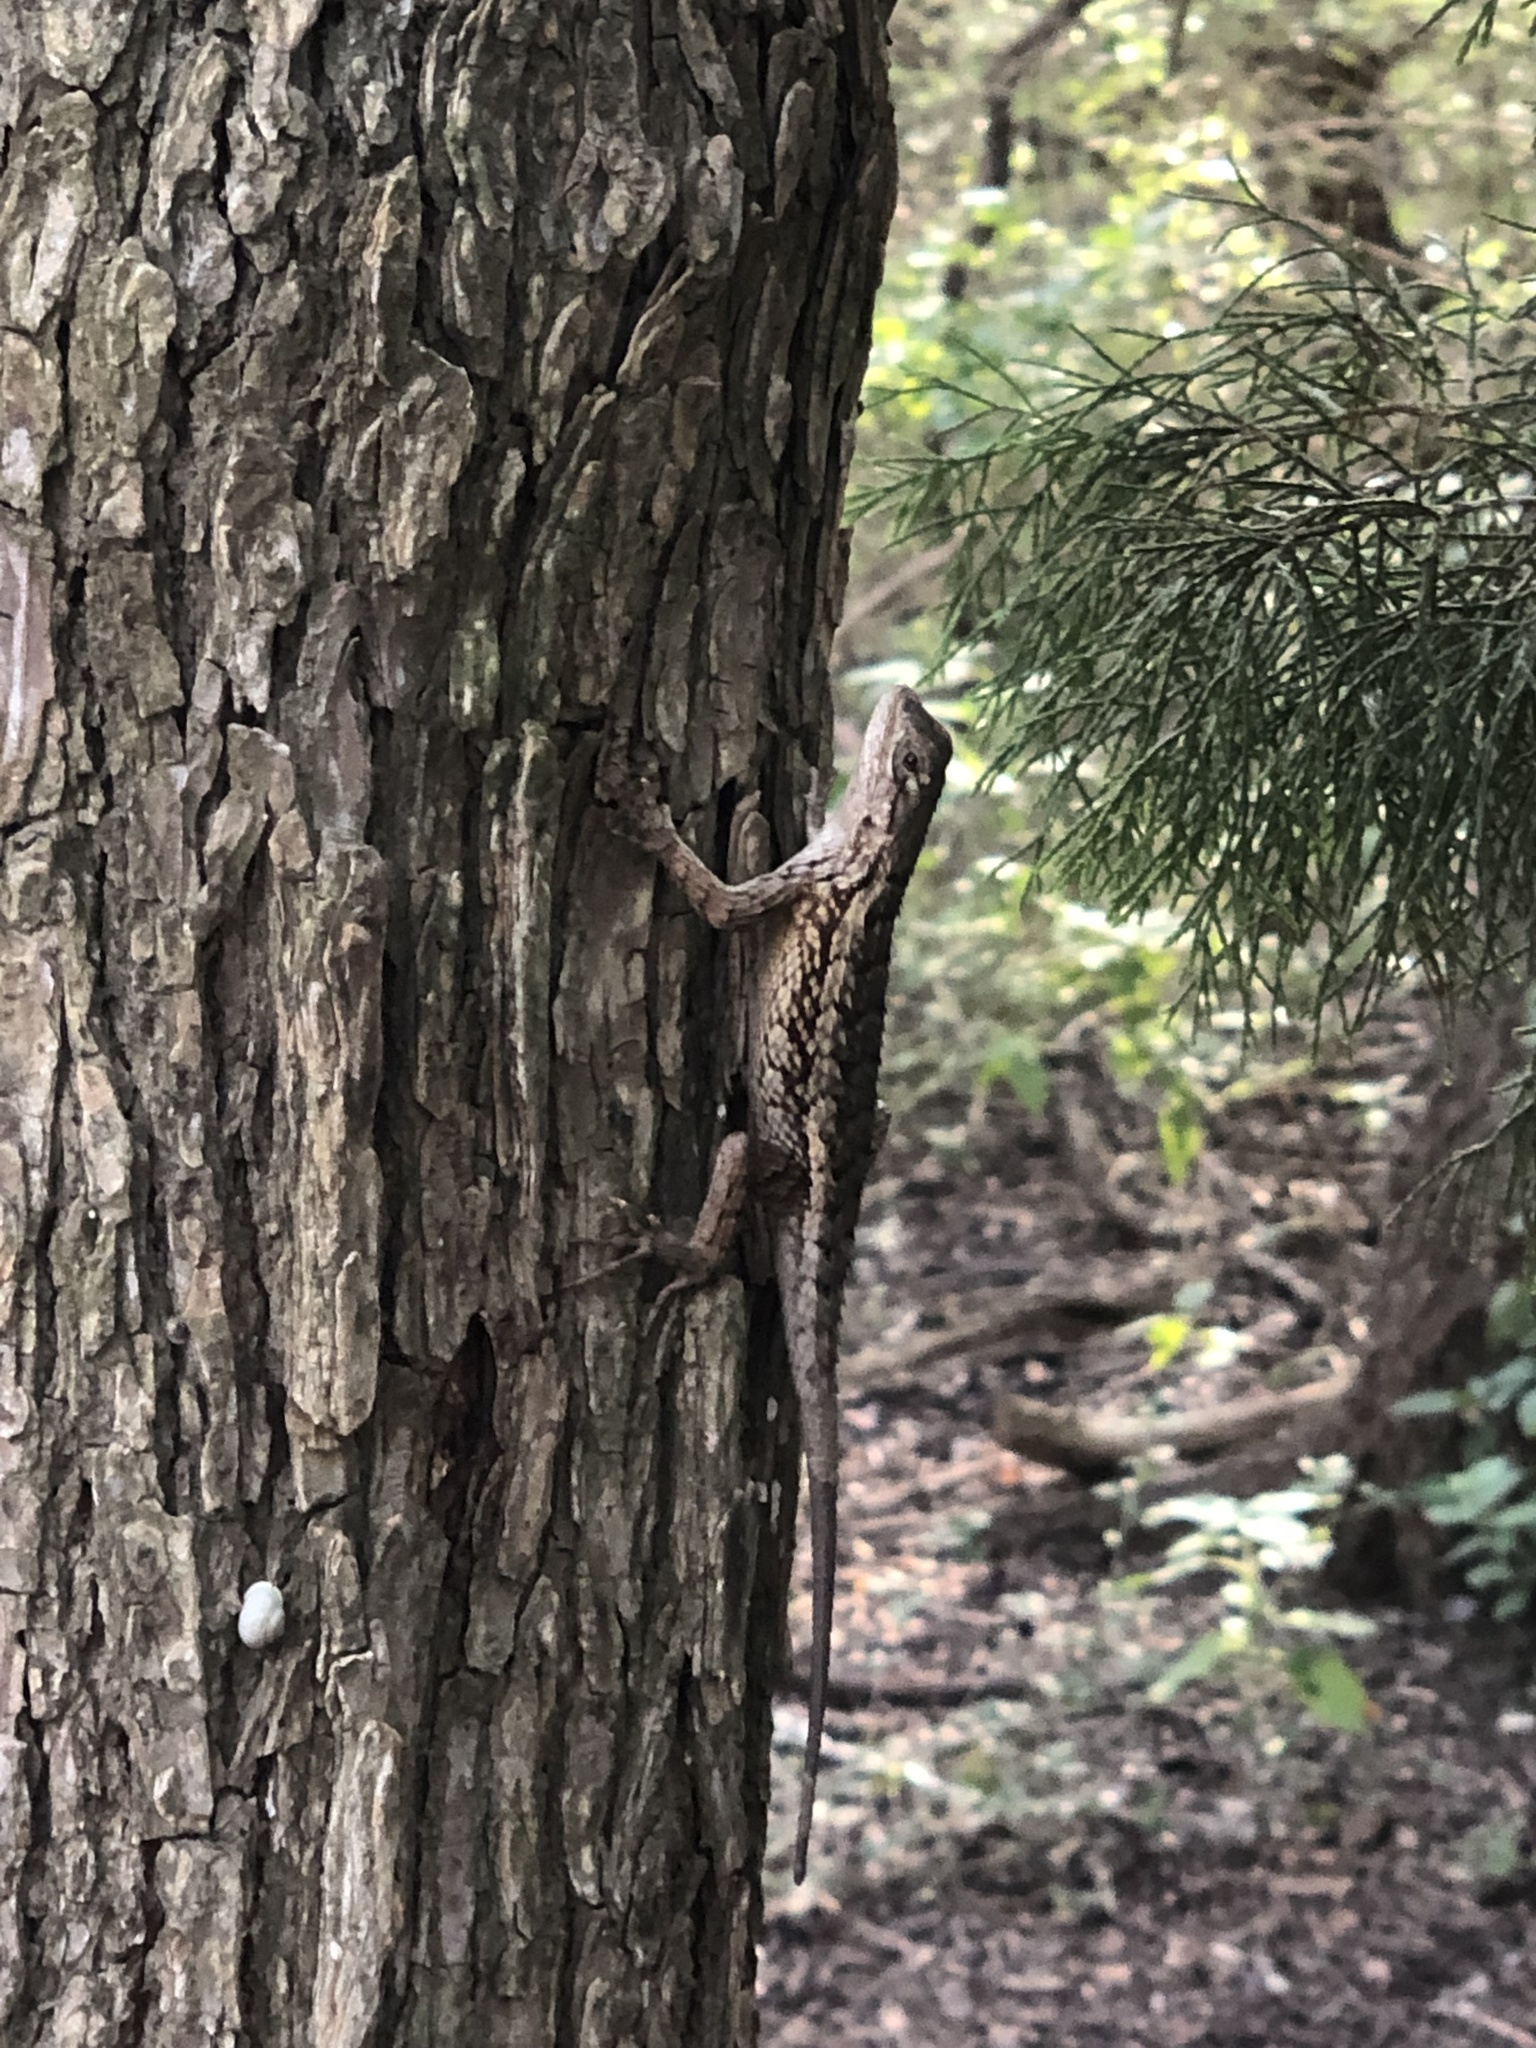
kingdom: Animalia
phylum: Chordata
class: Squamata
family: Phrynosomatidae
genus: Sceloporus
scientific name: Sceloporus olivaceus
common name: Texas spiny lizard
